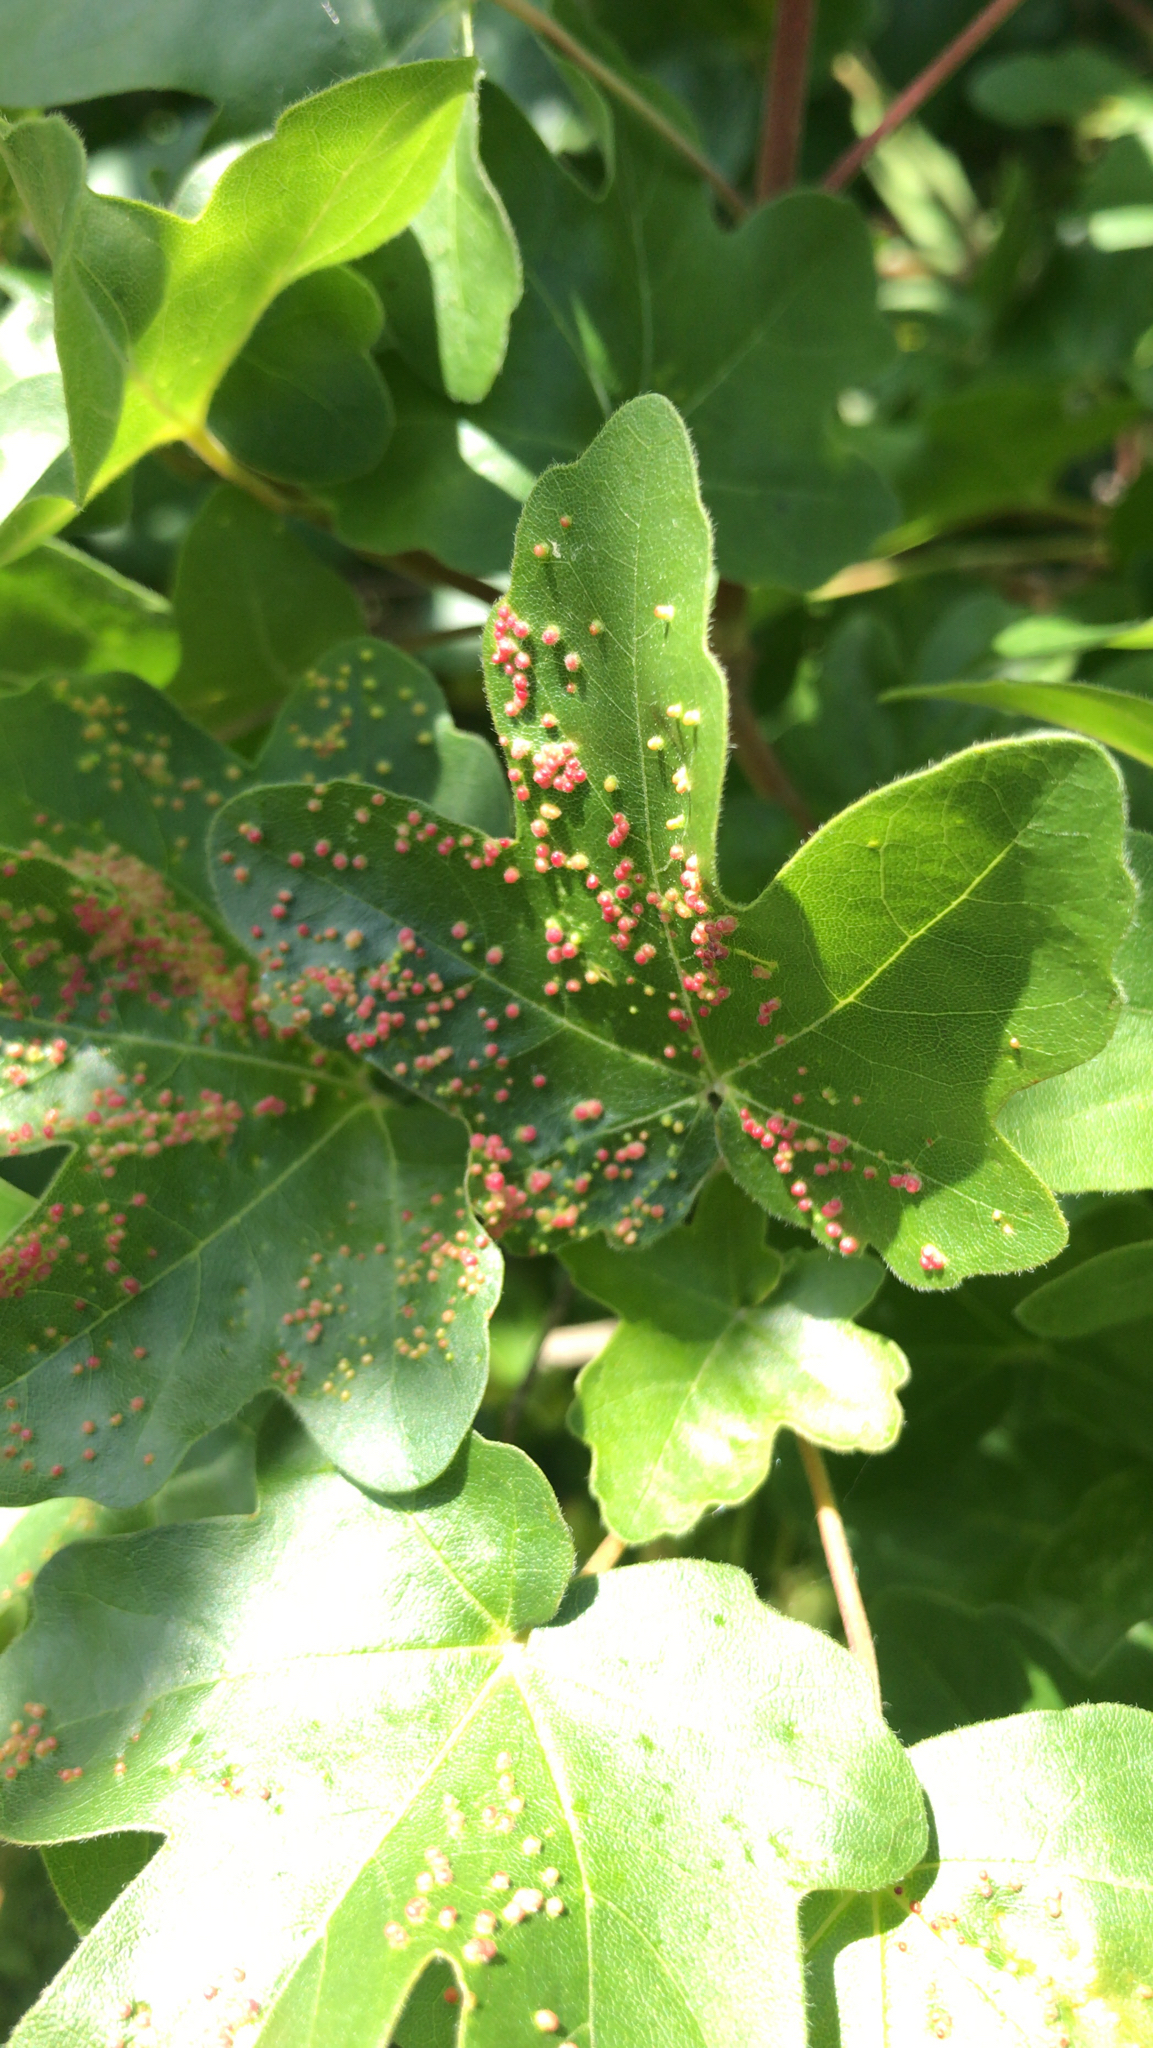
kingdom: Animalia
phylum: Arthropoda
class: Arachnida
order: Trombidiformes
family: Eriophyidae
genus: Aceria
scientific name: Aceria myriadeum
